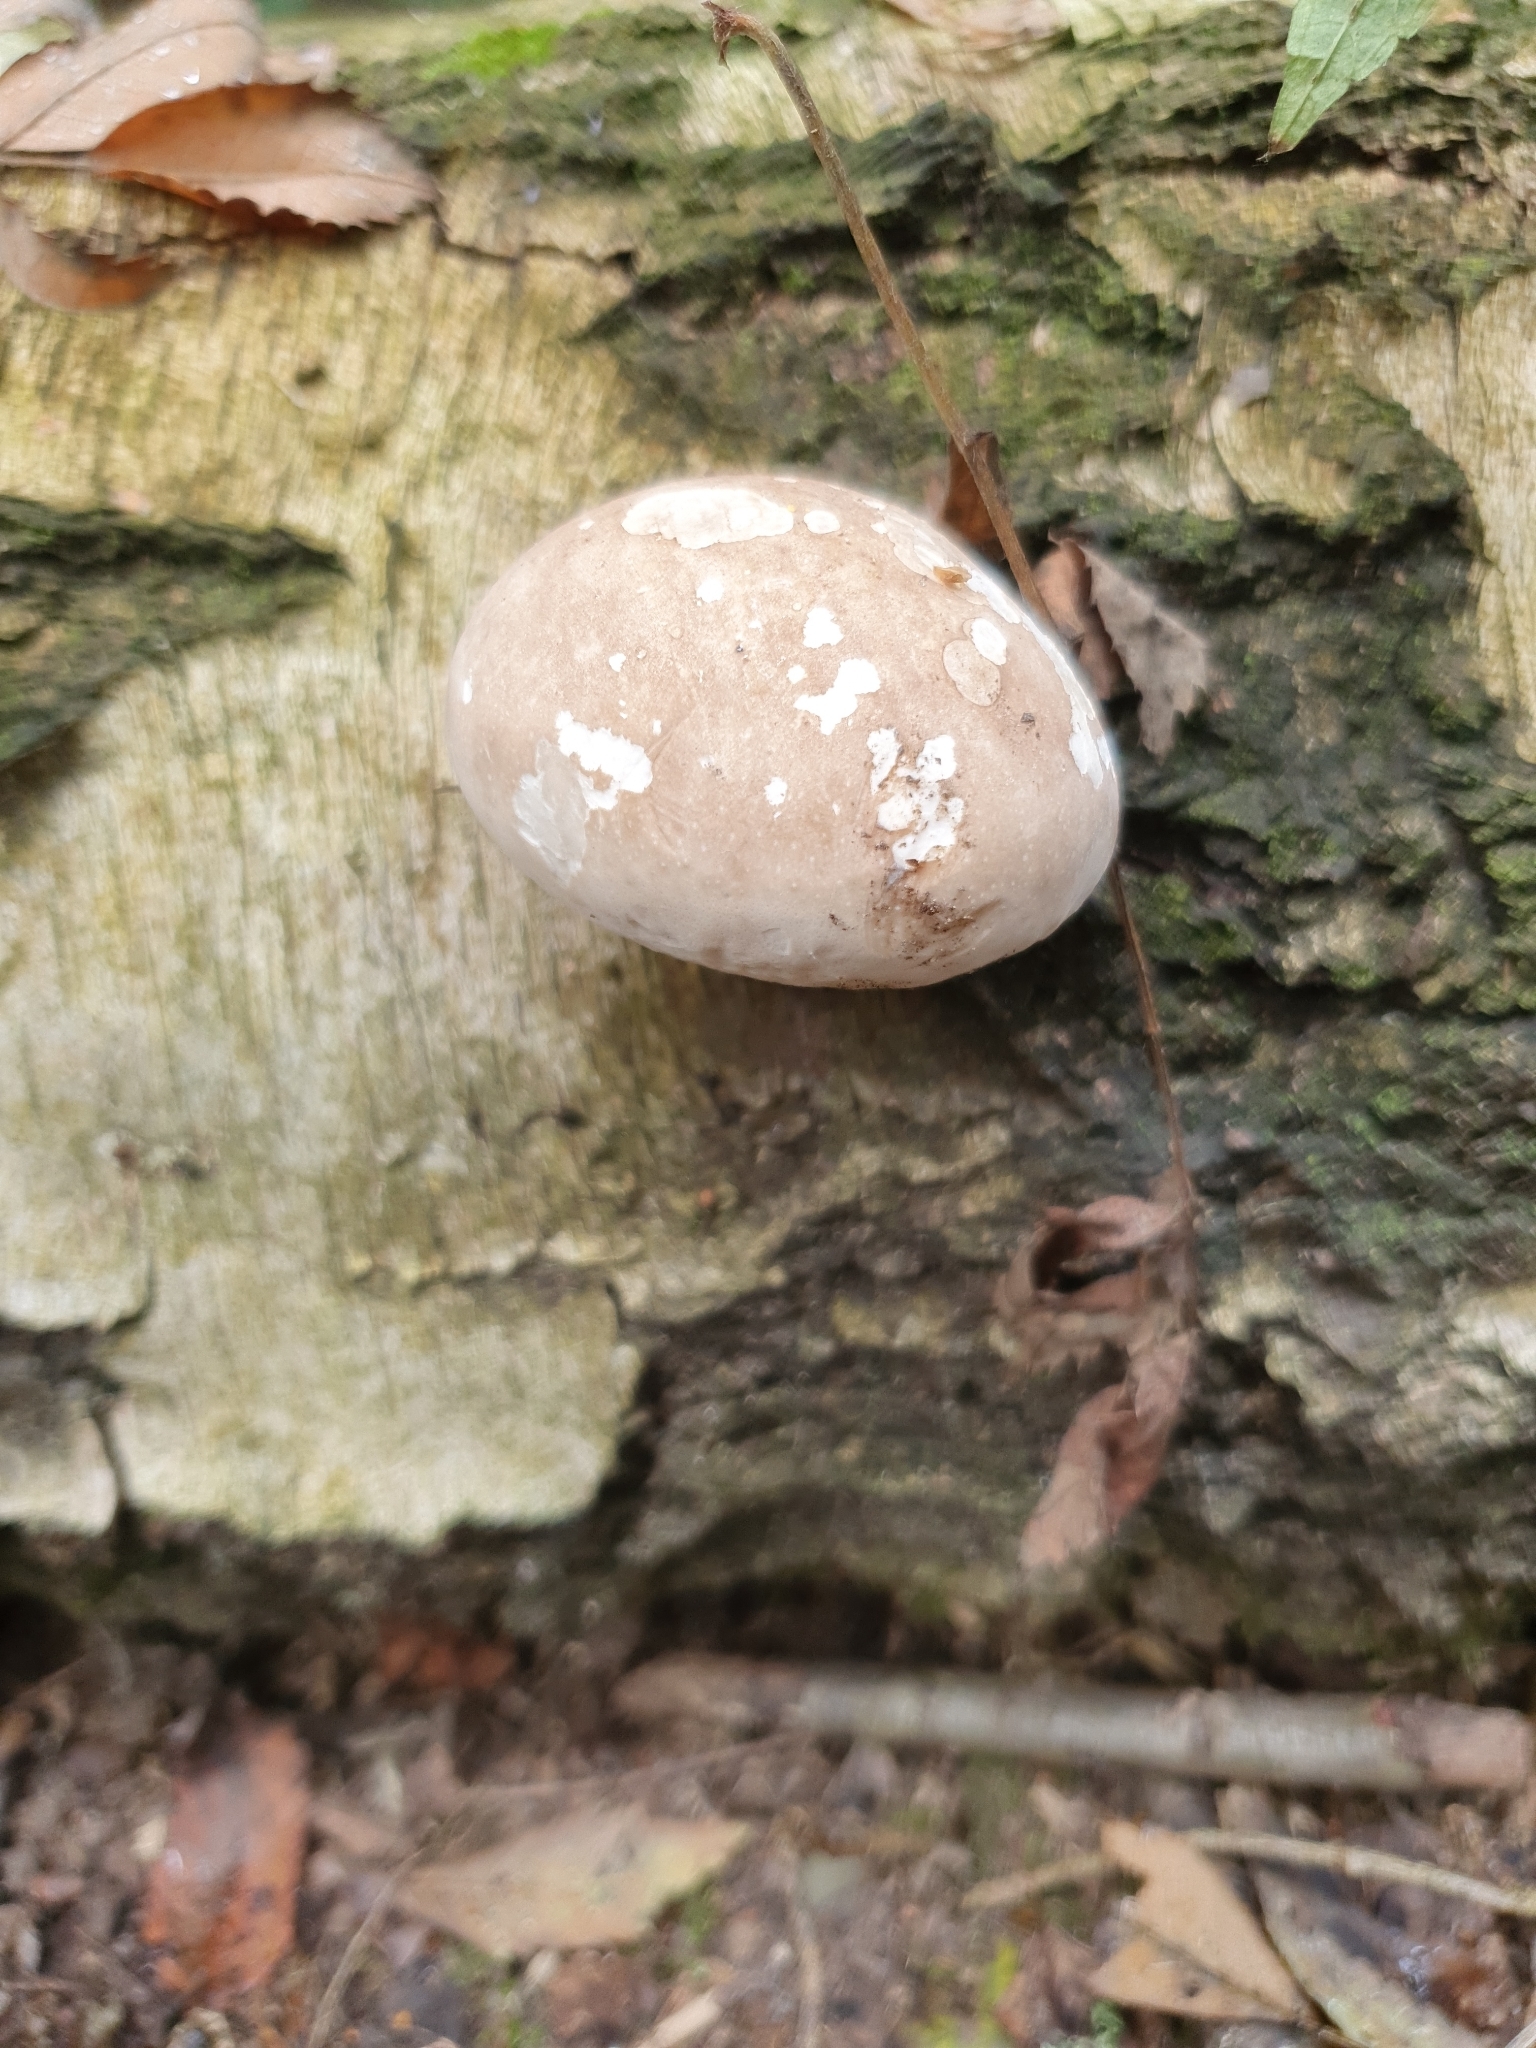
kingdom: Fungi
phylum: Basidiomycota
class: Agaricomycetes
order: Polyporales
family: Fomitopsidaceae
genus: Fomitopsis
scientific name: Fomitopsis betulina
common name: Birch polypore
